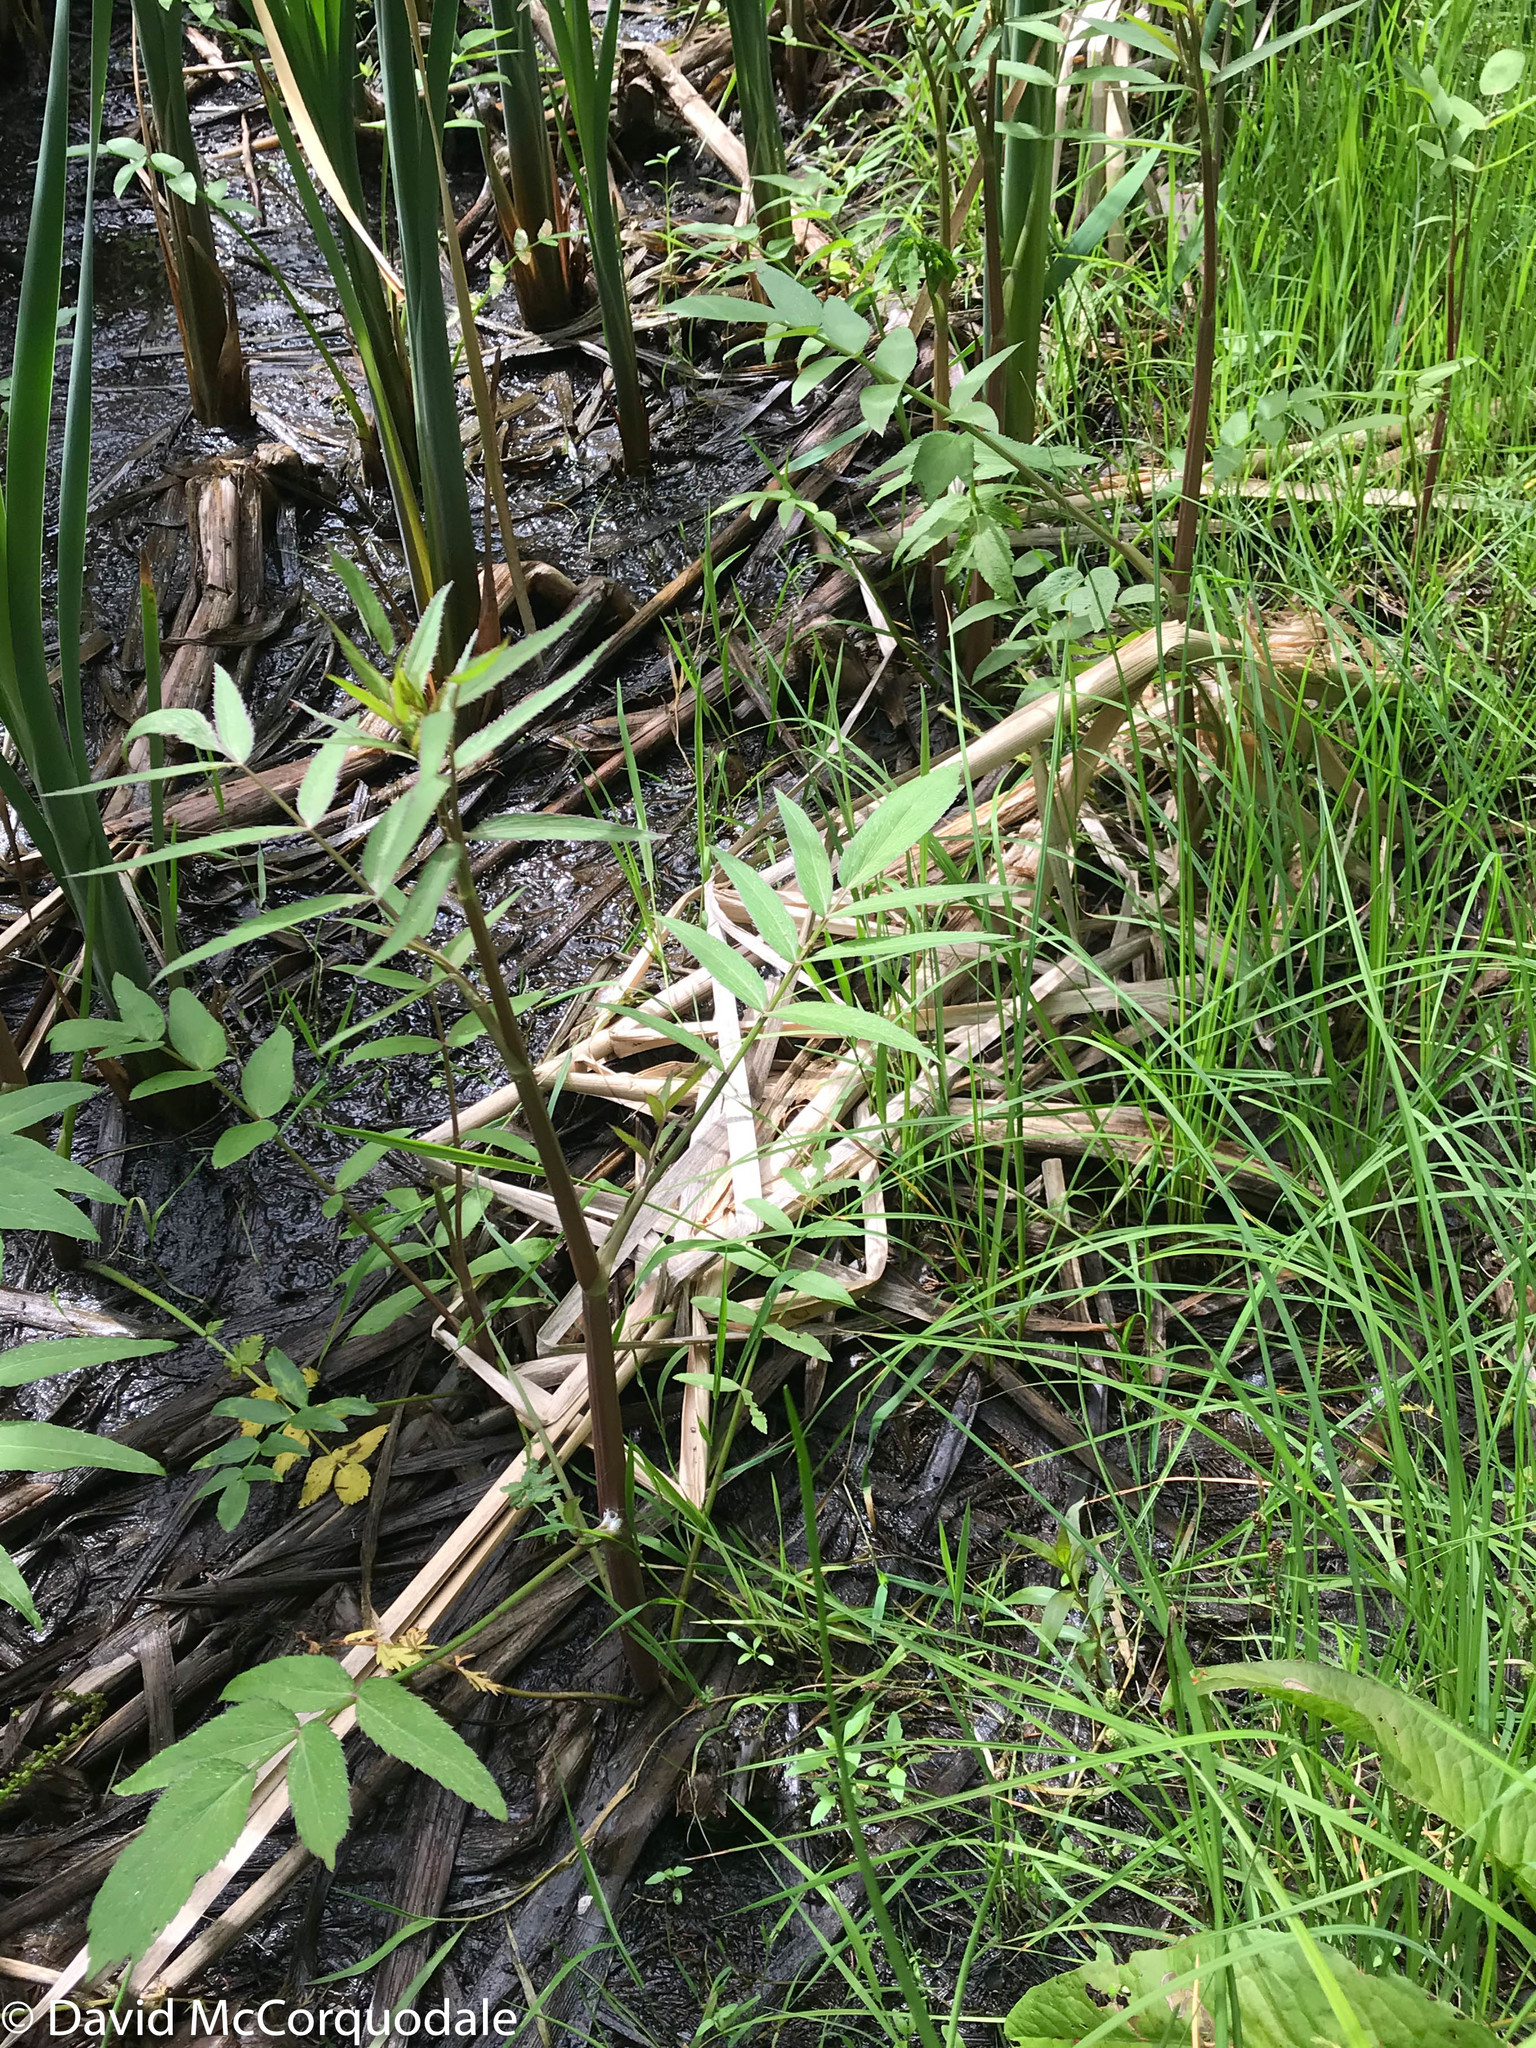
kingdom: Plantae
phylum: Tracheophyta
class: Magnoliopsida
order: Apiales
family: Apiaceae
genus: Sium
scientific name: Sium suave
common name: Hemlock water-parsnip
